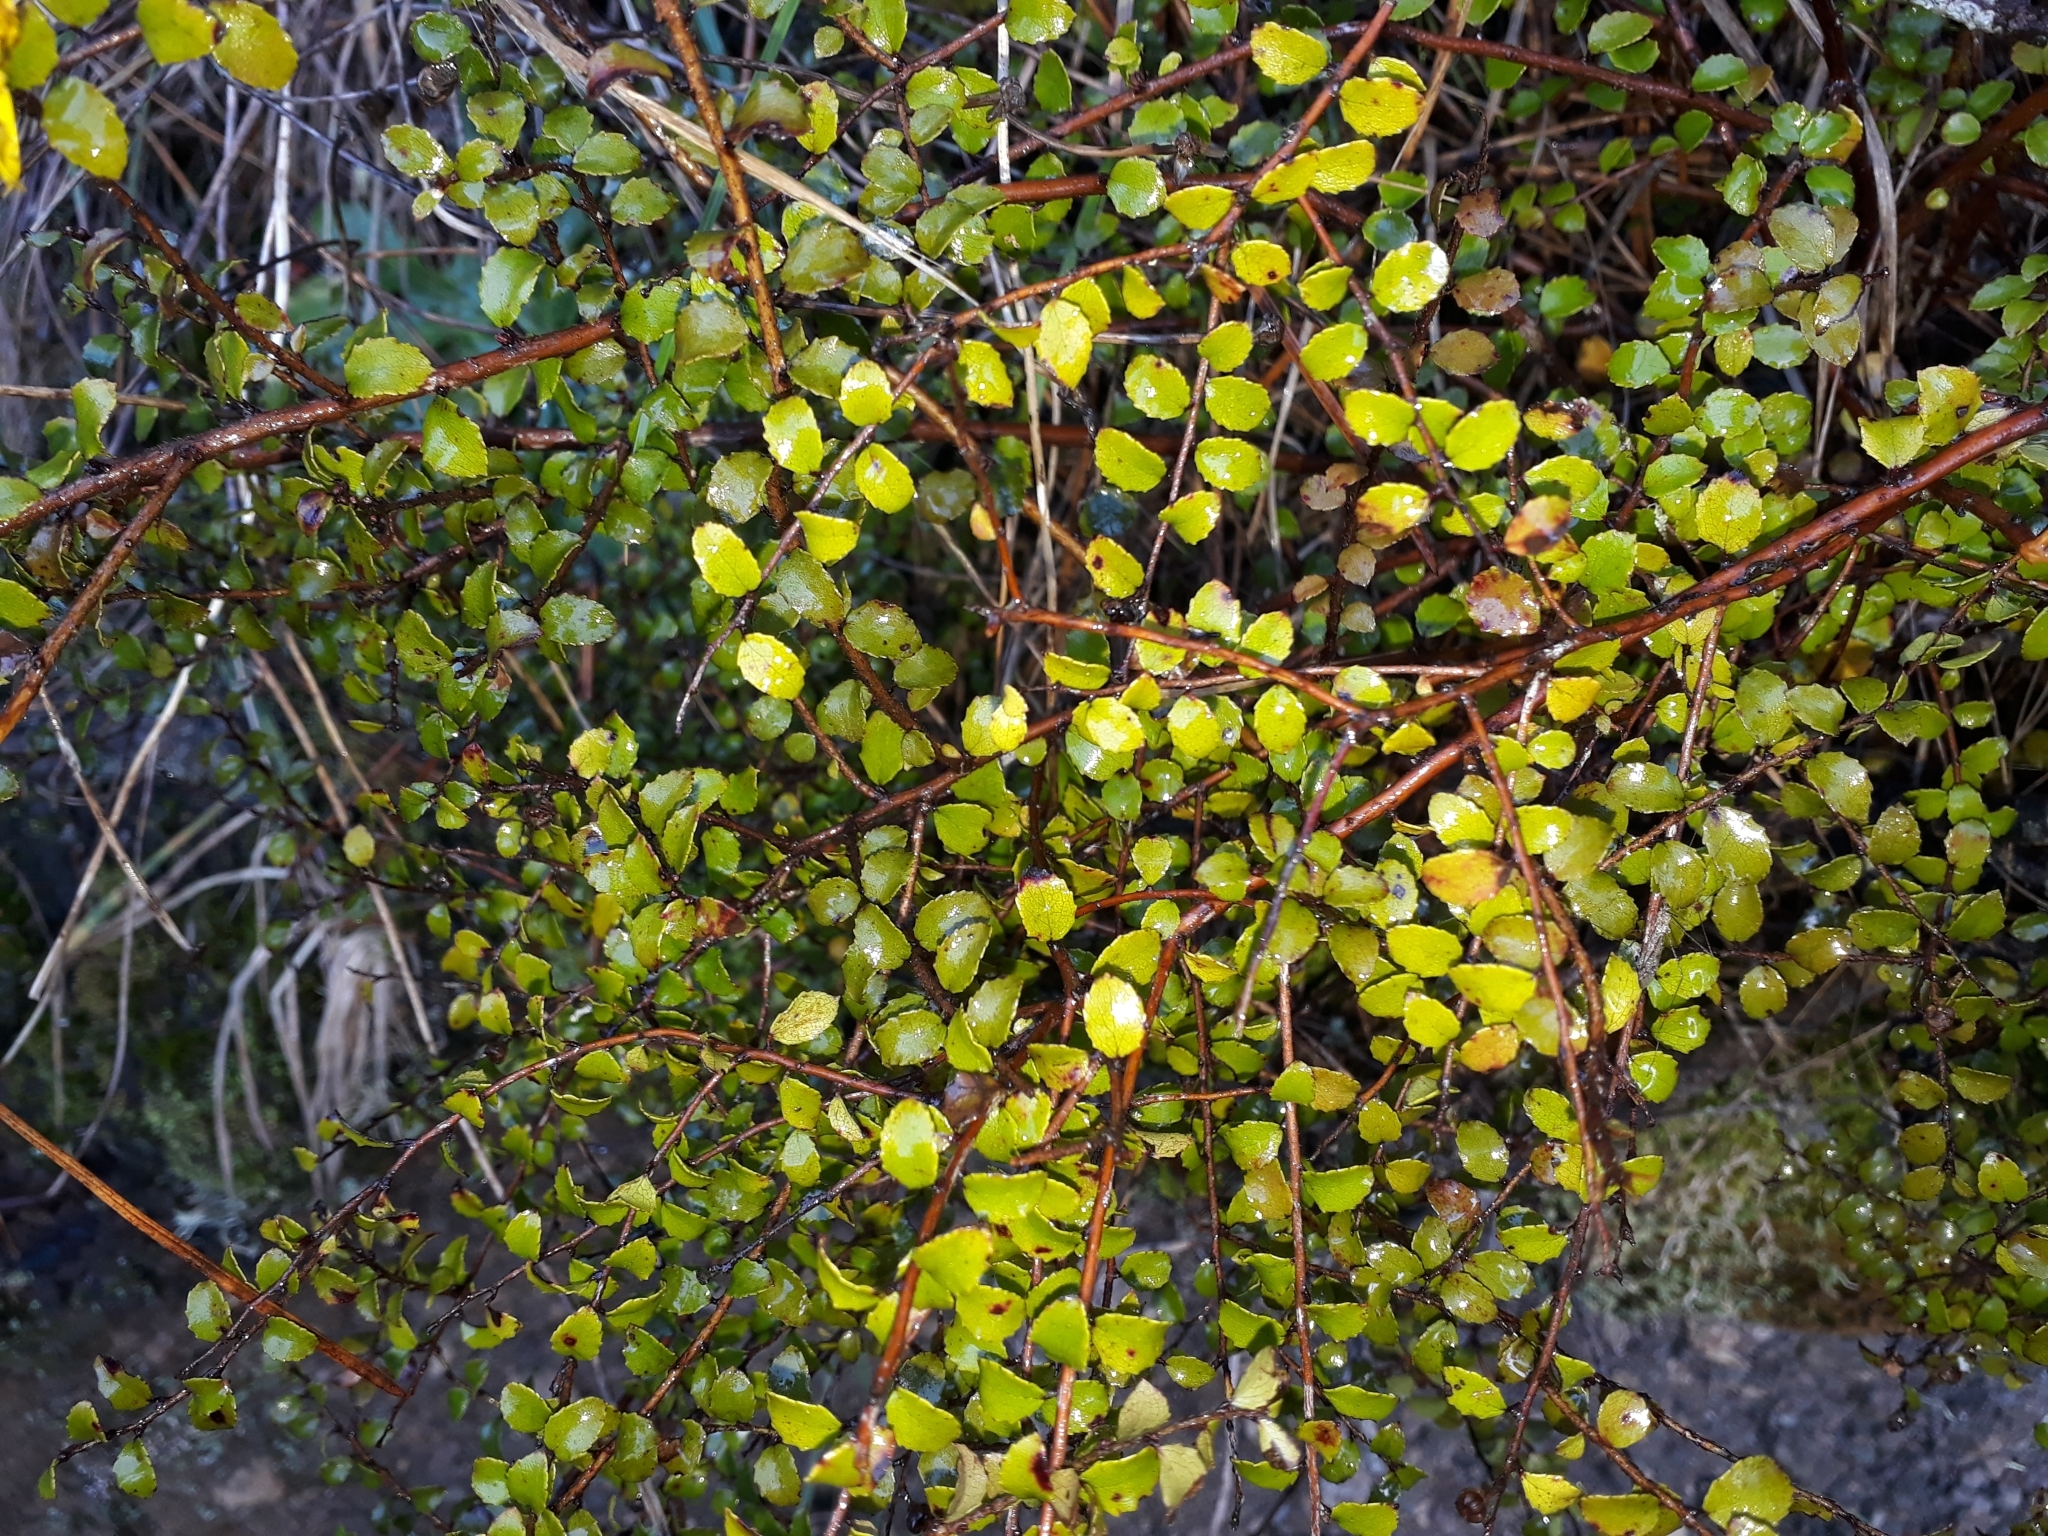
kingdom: Plantae
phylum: Tracheophyta
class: Magnoliopsida
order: Ericales
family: Ericaceae
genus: Gaultheria
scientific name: Gaultheria antipoda
